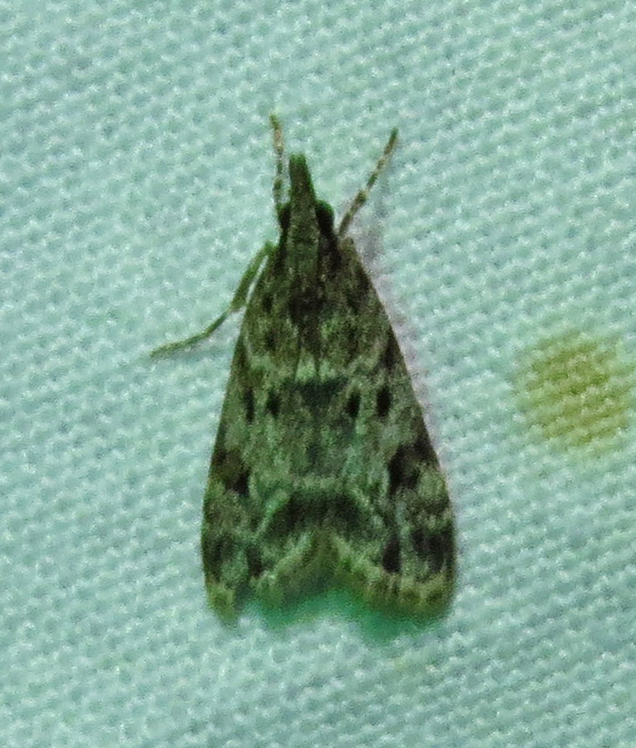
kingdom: Animalia
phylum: Arthropoda
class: Insecta
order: Lepidoptera
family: Crambidae
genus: Eudonia
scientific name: Eudonia heterosalis
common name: Mcdunnough's eudonia
